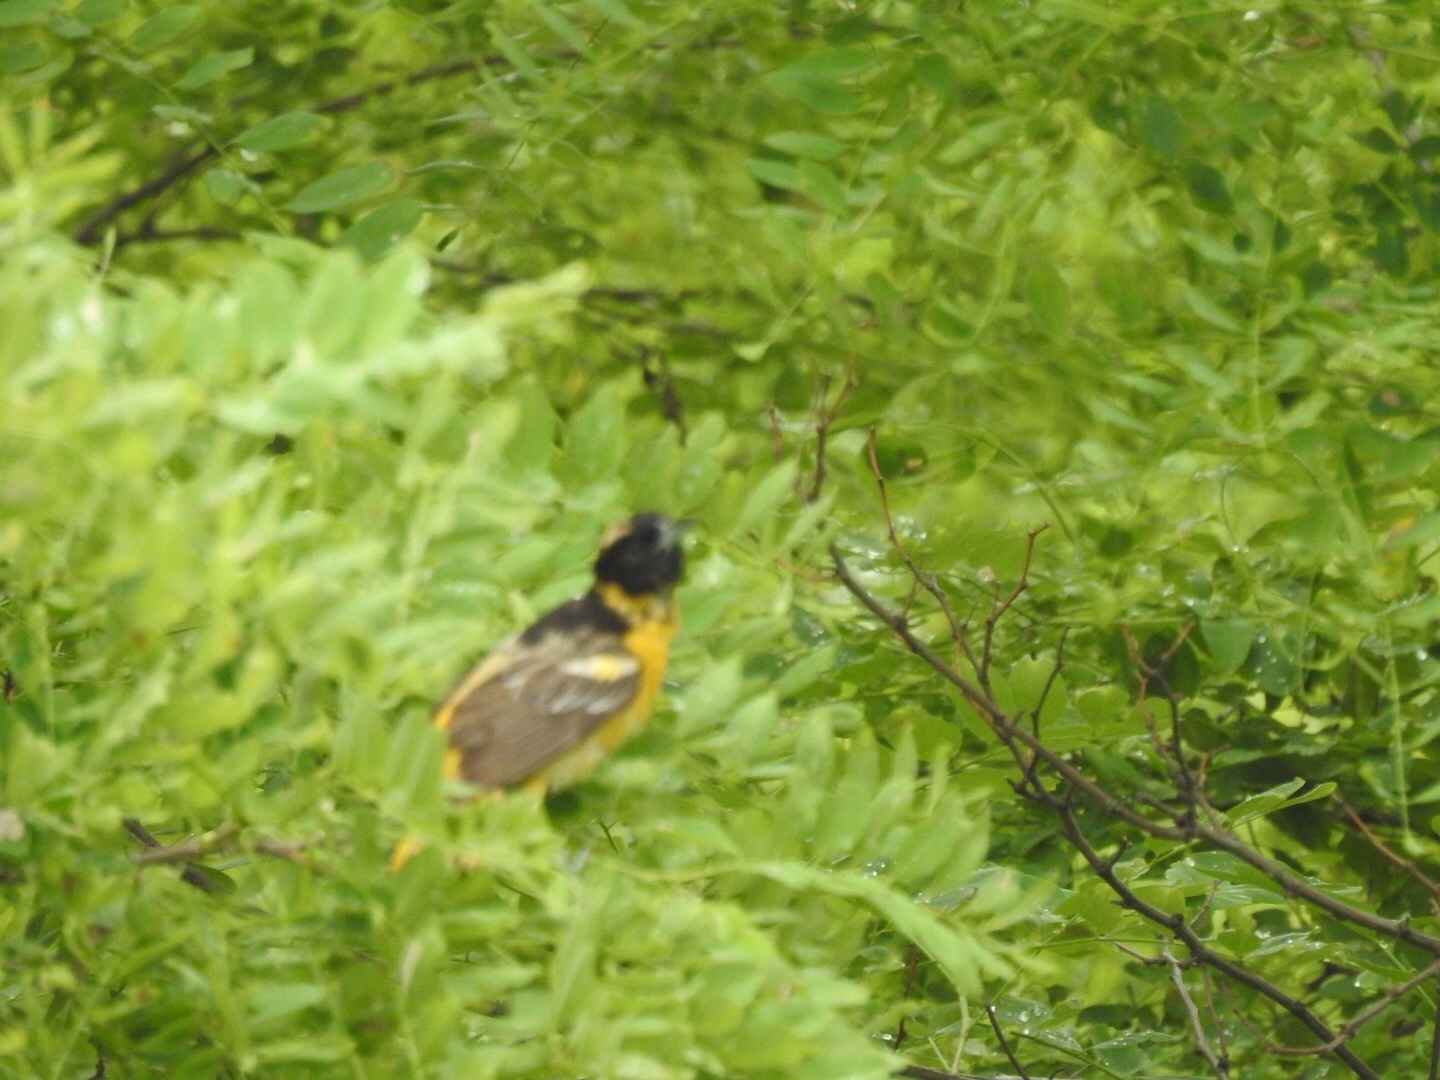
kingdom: Animalia
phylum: Chordata
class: Aves
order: Passeriformes
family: Icteridae
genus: Icterus
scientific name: Icterus galbula
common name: Baltimore oriole
